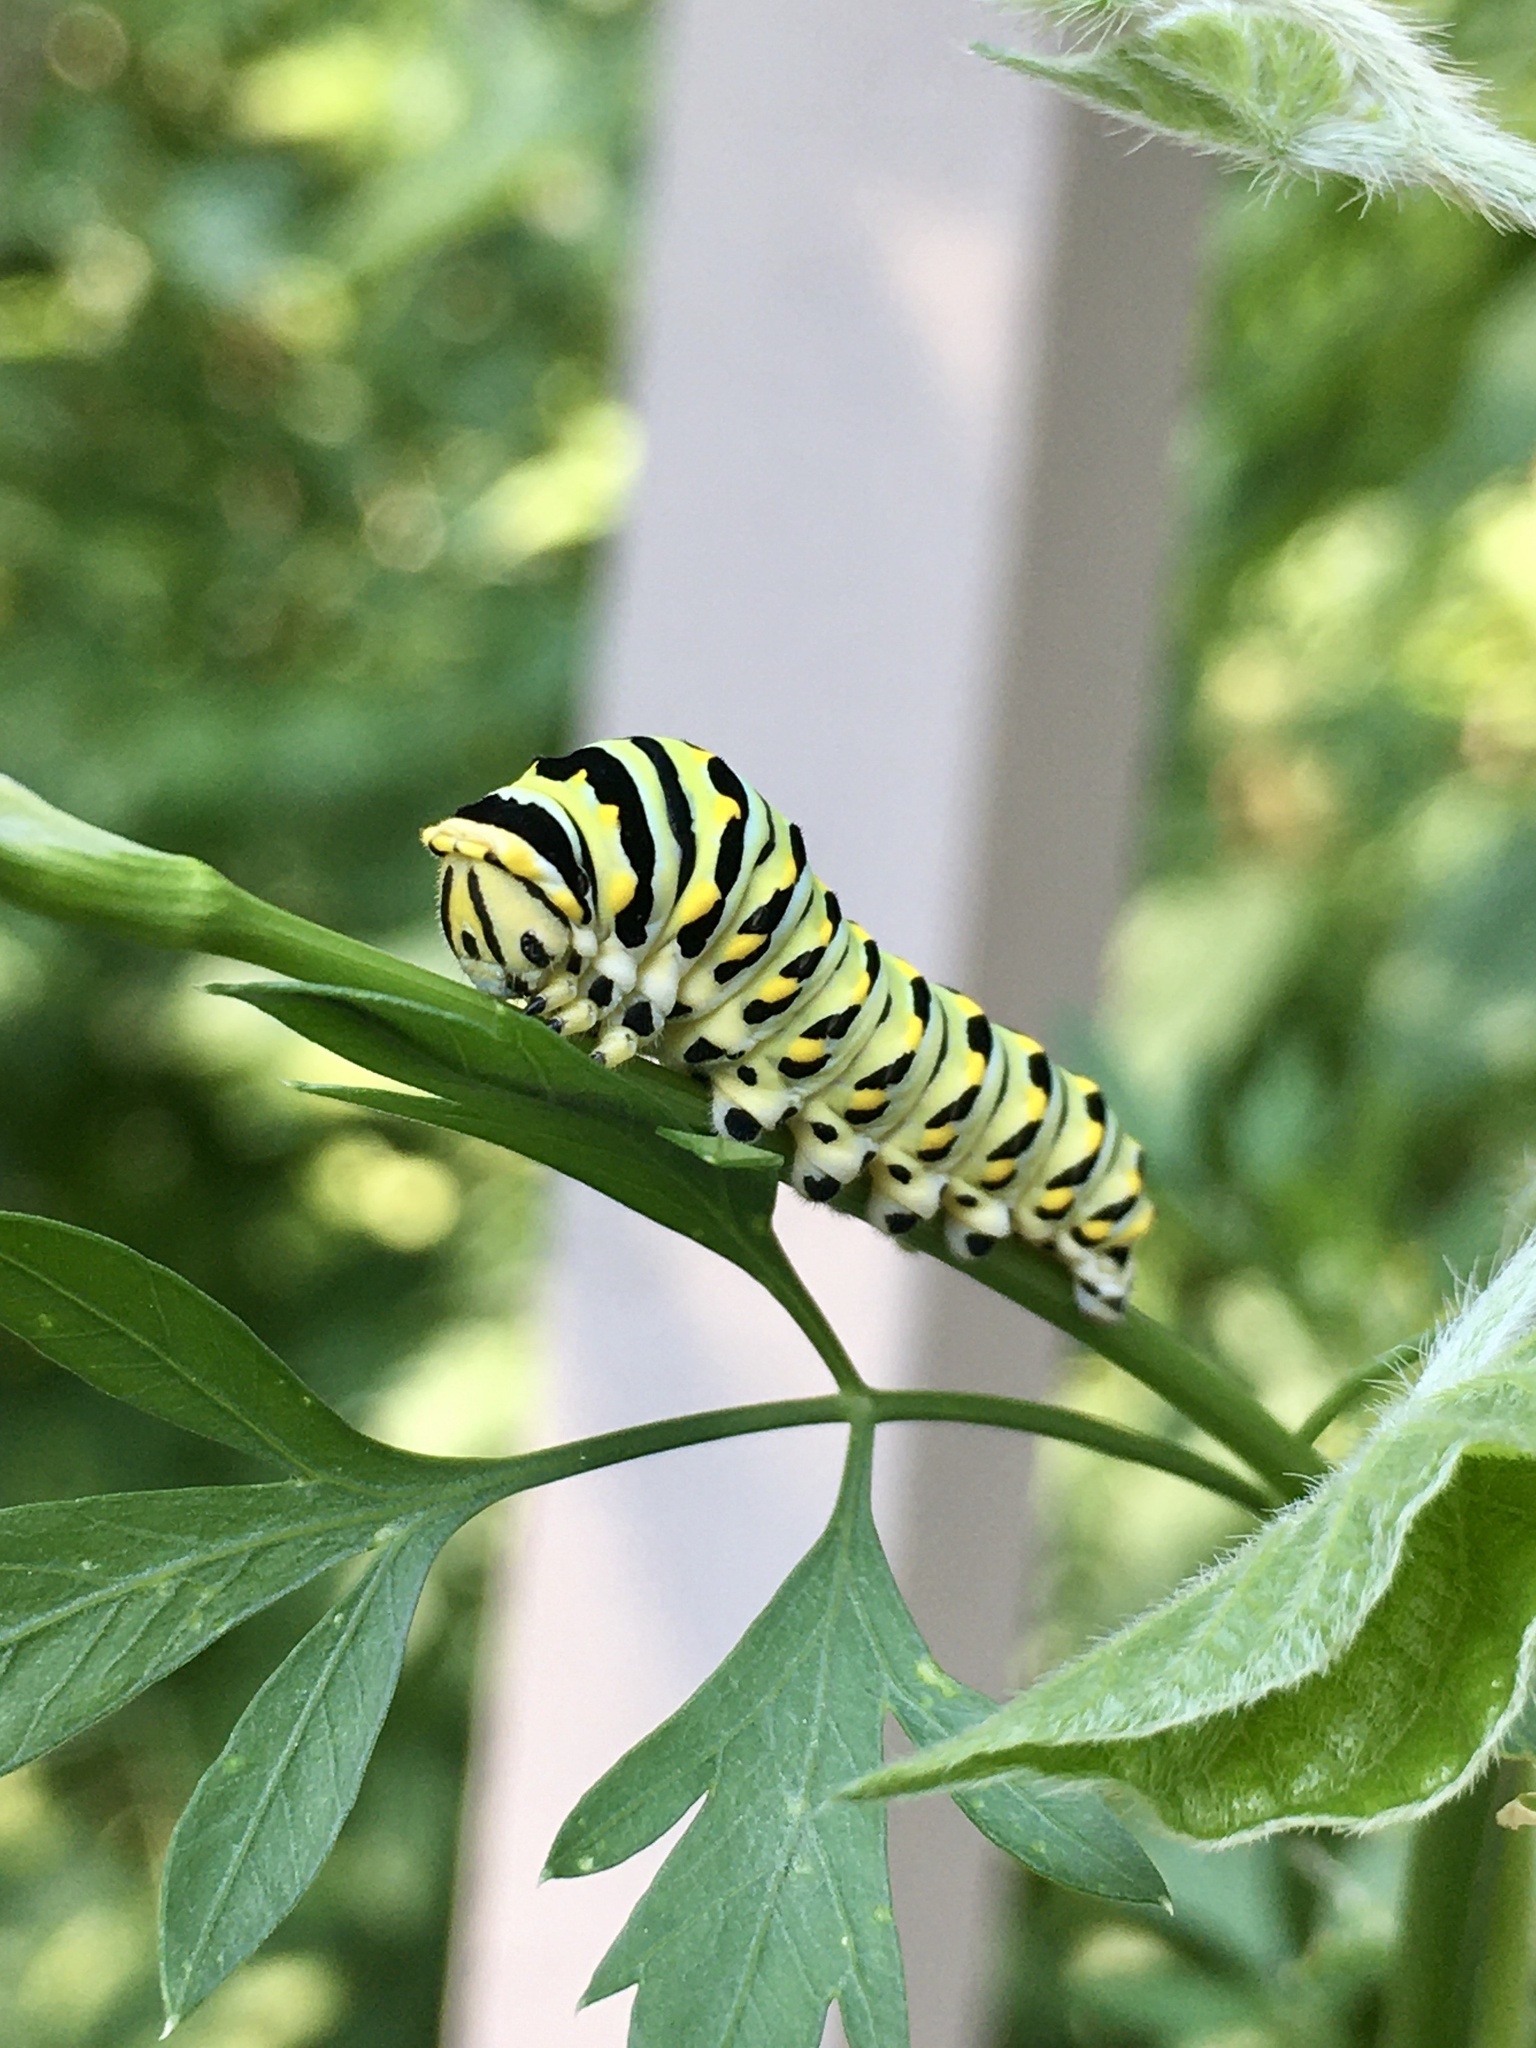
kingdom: Animalia
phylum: Arthropoda
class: Insecta
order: Lepidoptera
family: Papilionidae
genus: Papilio
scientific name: Papilio polyxenes
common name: Black swallowtail
